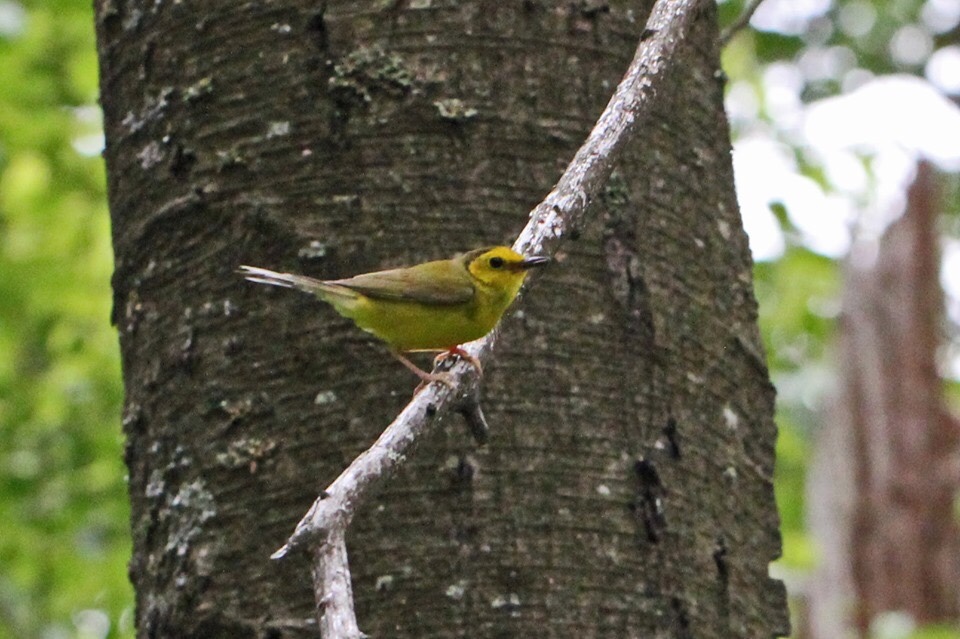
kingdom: Animalia
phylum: Chordata
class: Aves
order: Passeriformes
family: Parulidae
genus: Setophaga
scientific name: Setophaga citrina
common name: Hooded warbler
